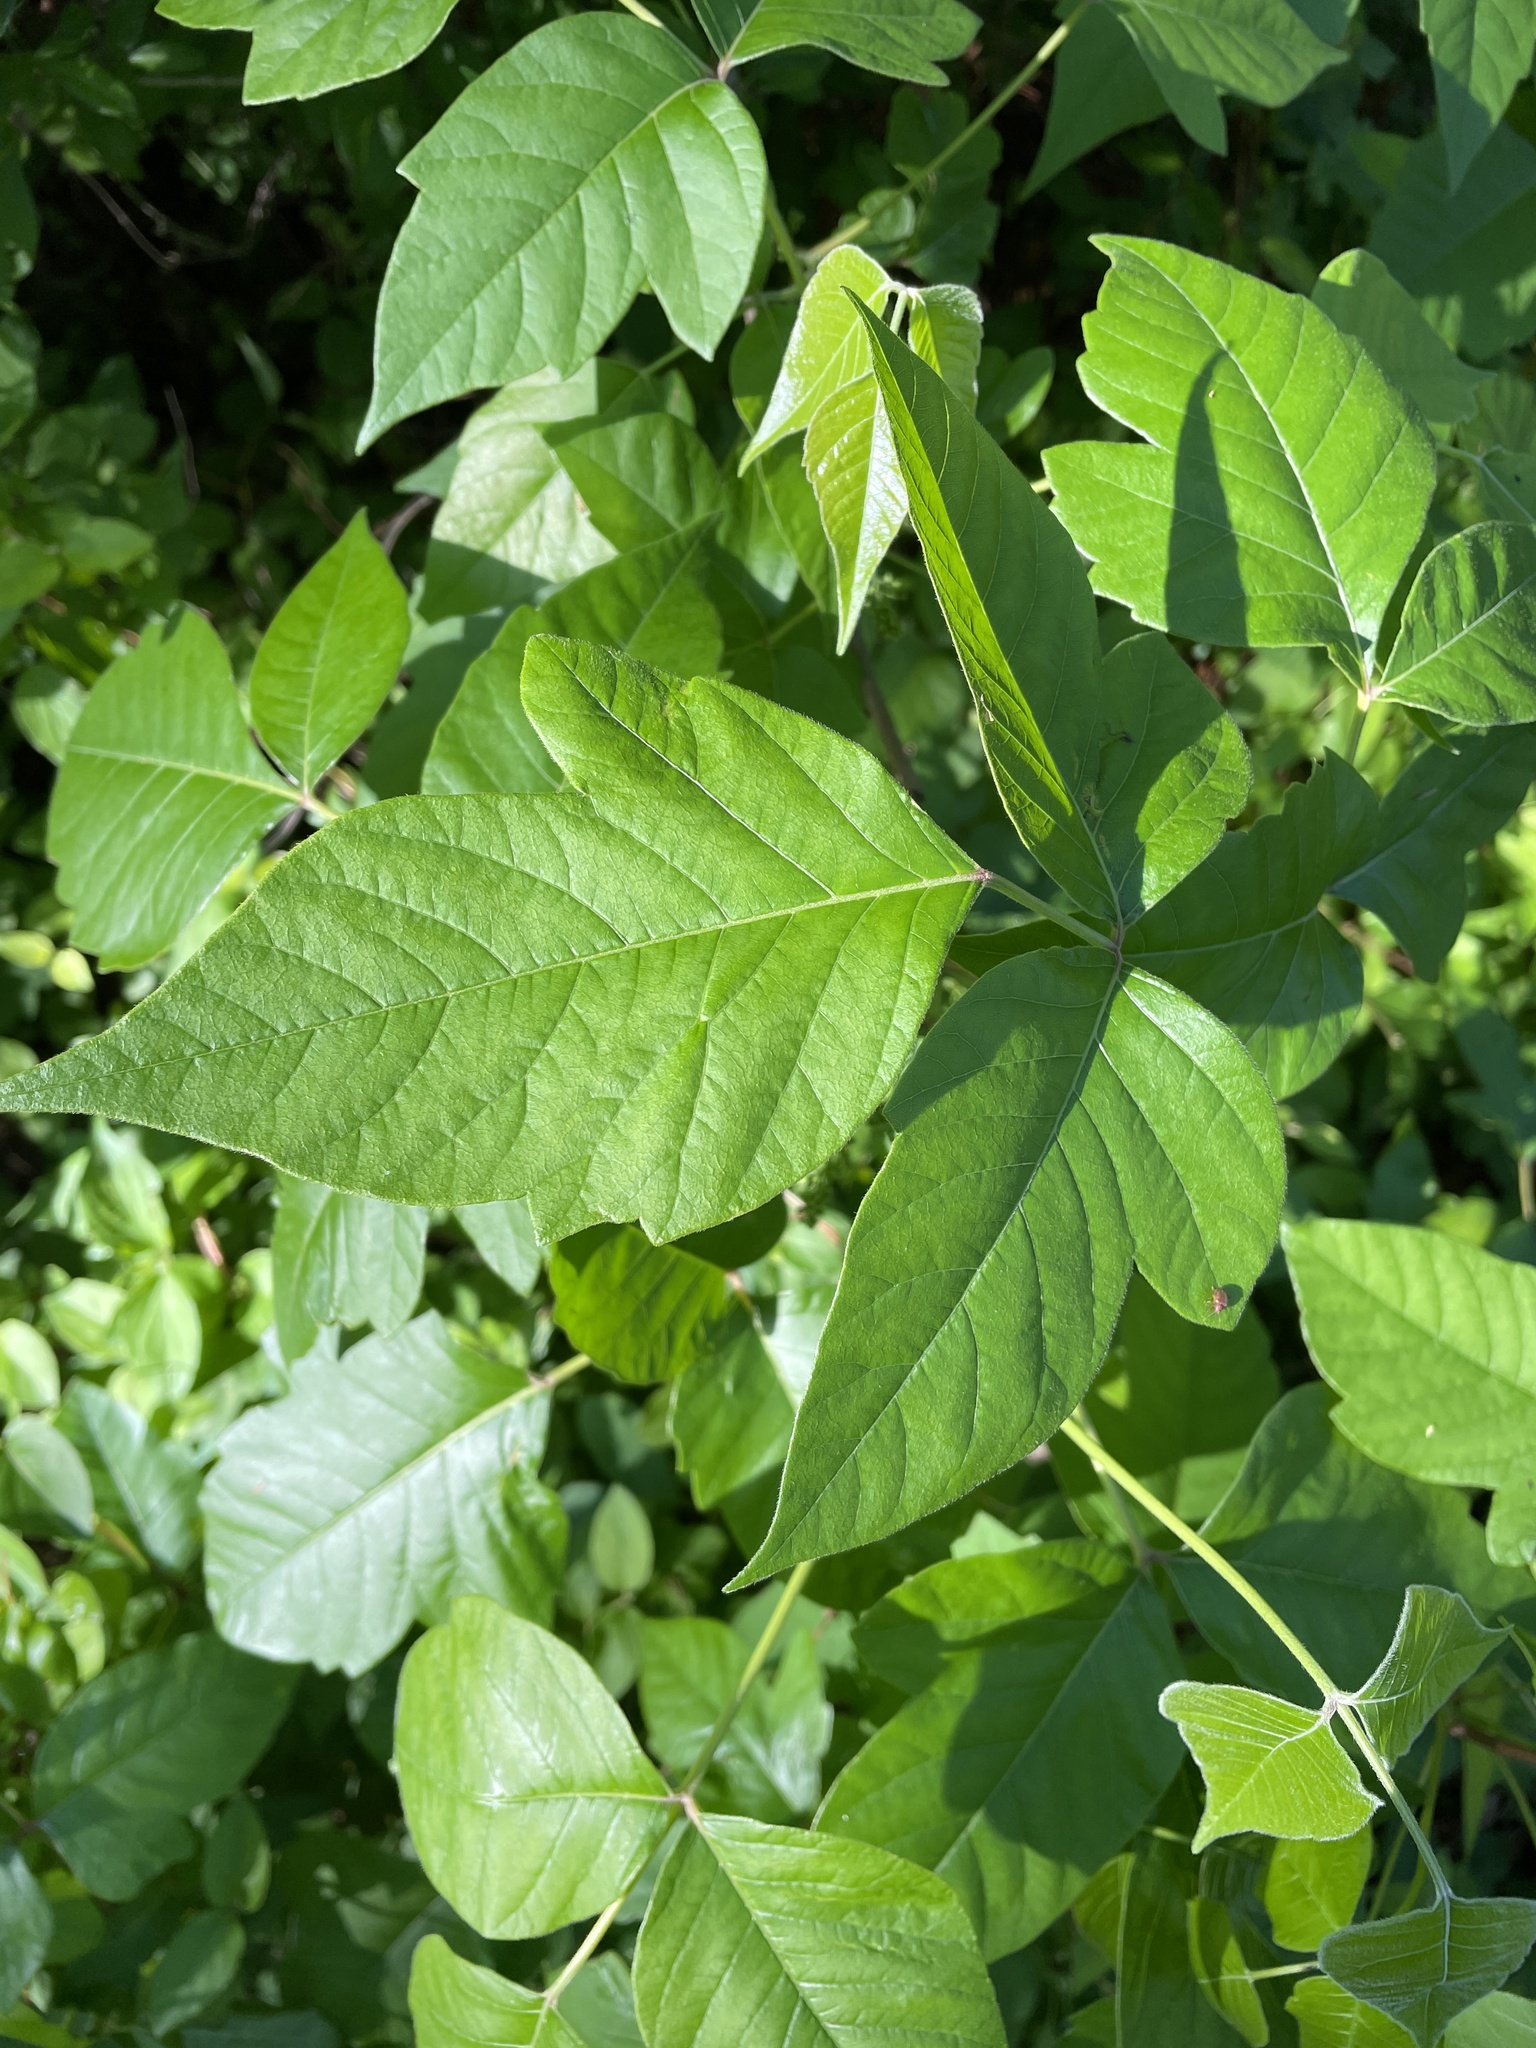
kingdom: Plantae
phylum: Tracheophyta
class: Magnoliopsida
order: Sapindales
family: Anacardiaceae
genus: Toxicodendron
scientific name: Toxicodendron radicans
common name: Poison ivy
